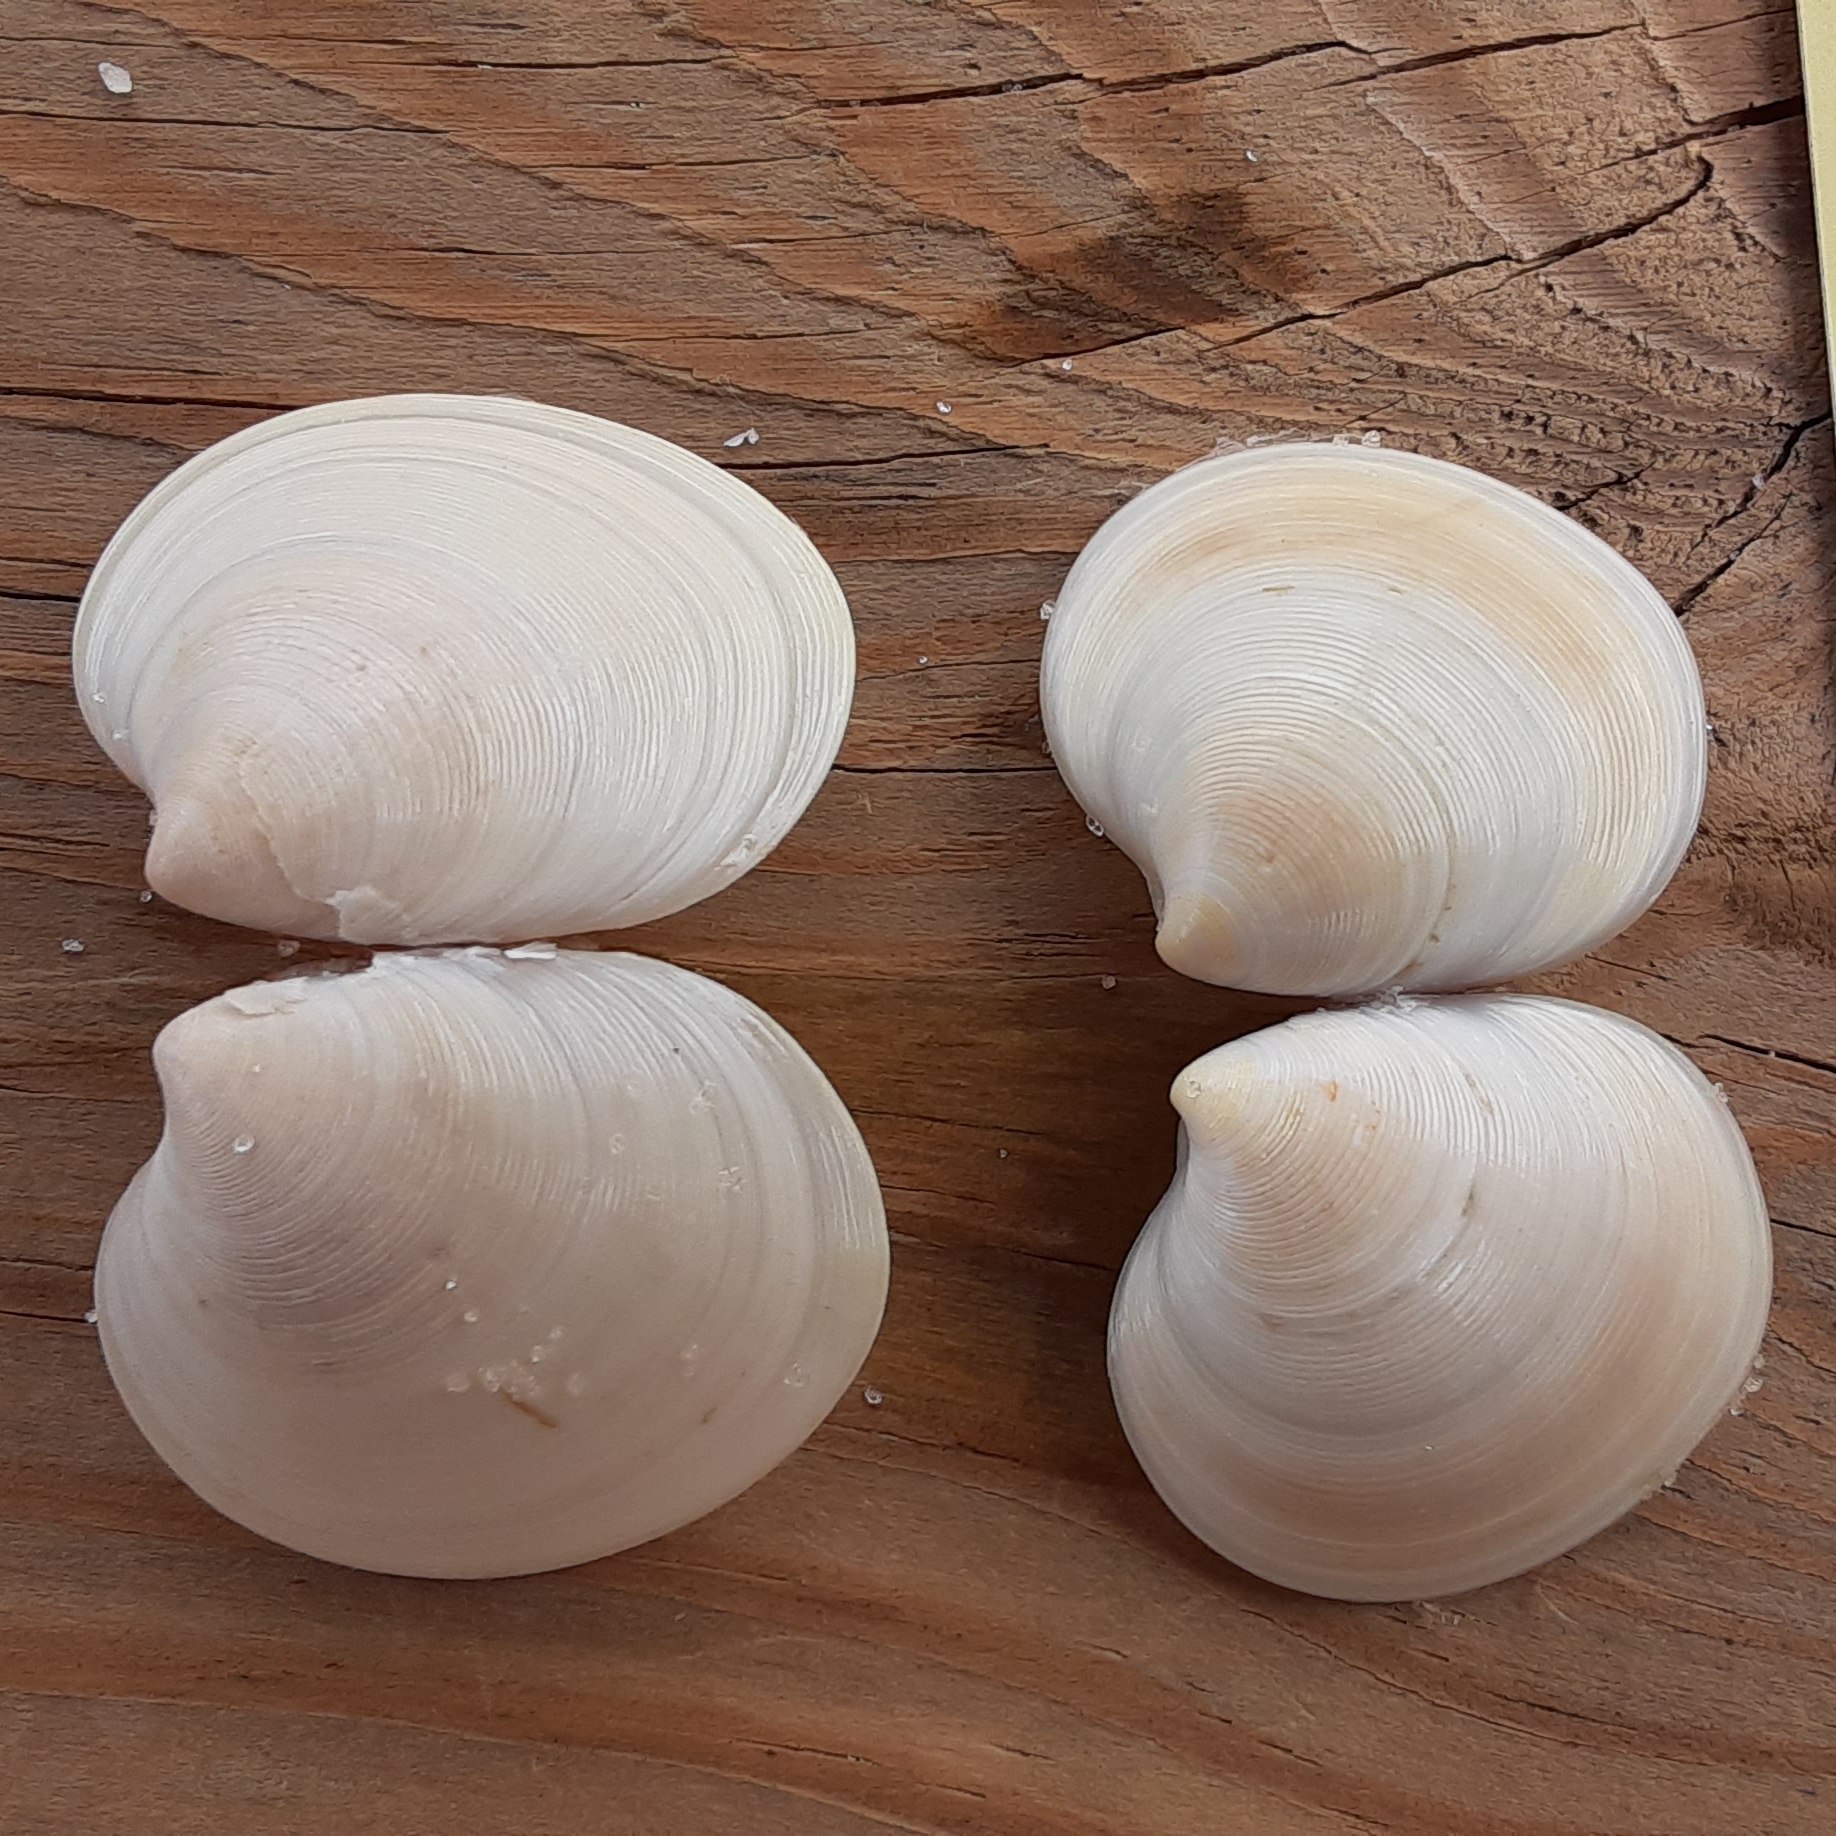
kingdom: Animalia
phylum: Mollusca
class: Bivalvia
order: Venerida
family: Veneridae
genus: Dosinia
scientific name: Dosinia discus
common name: Disk dosinia
